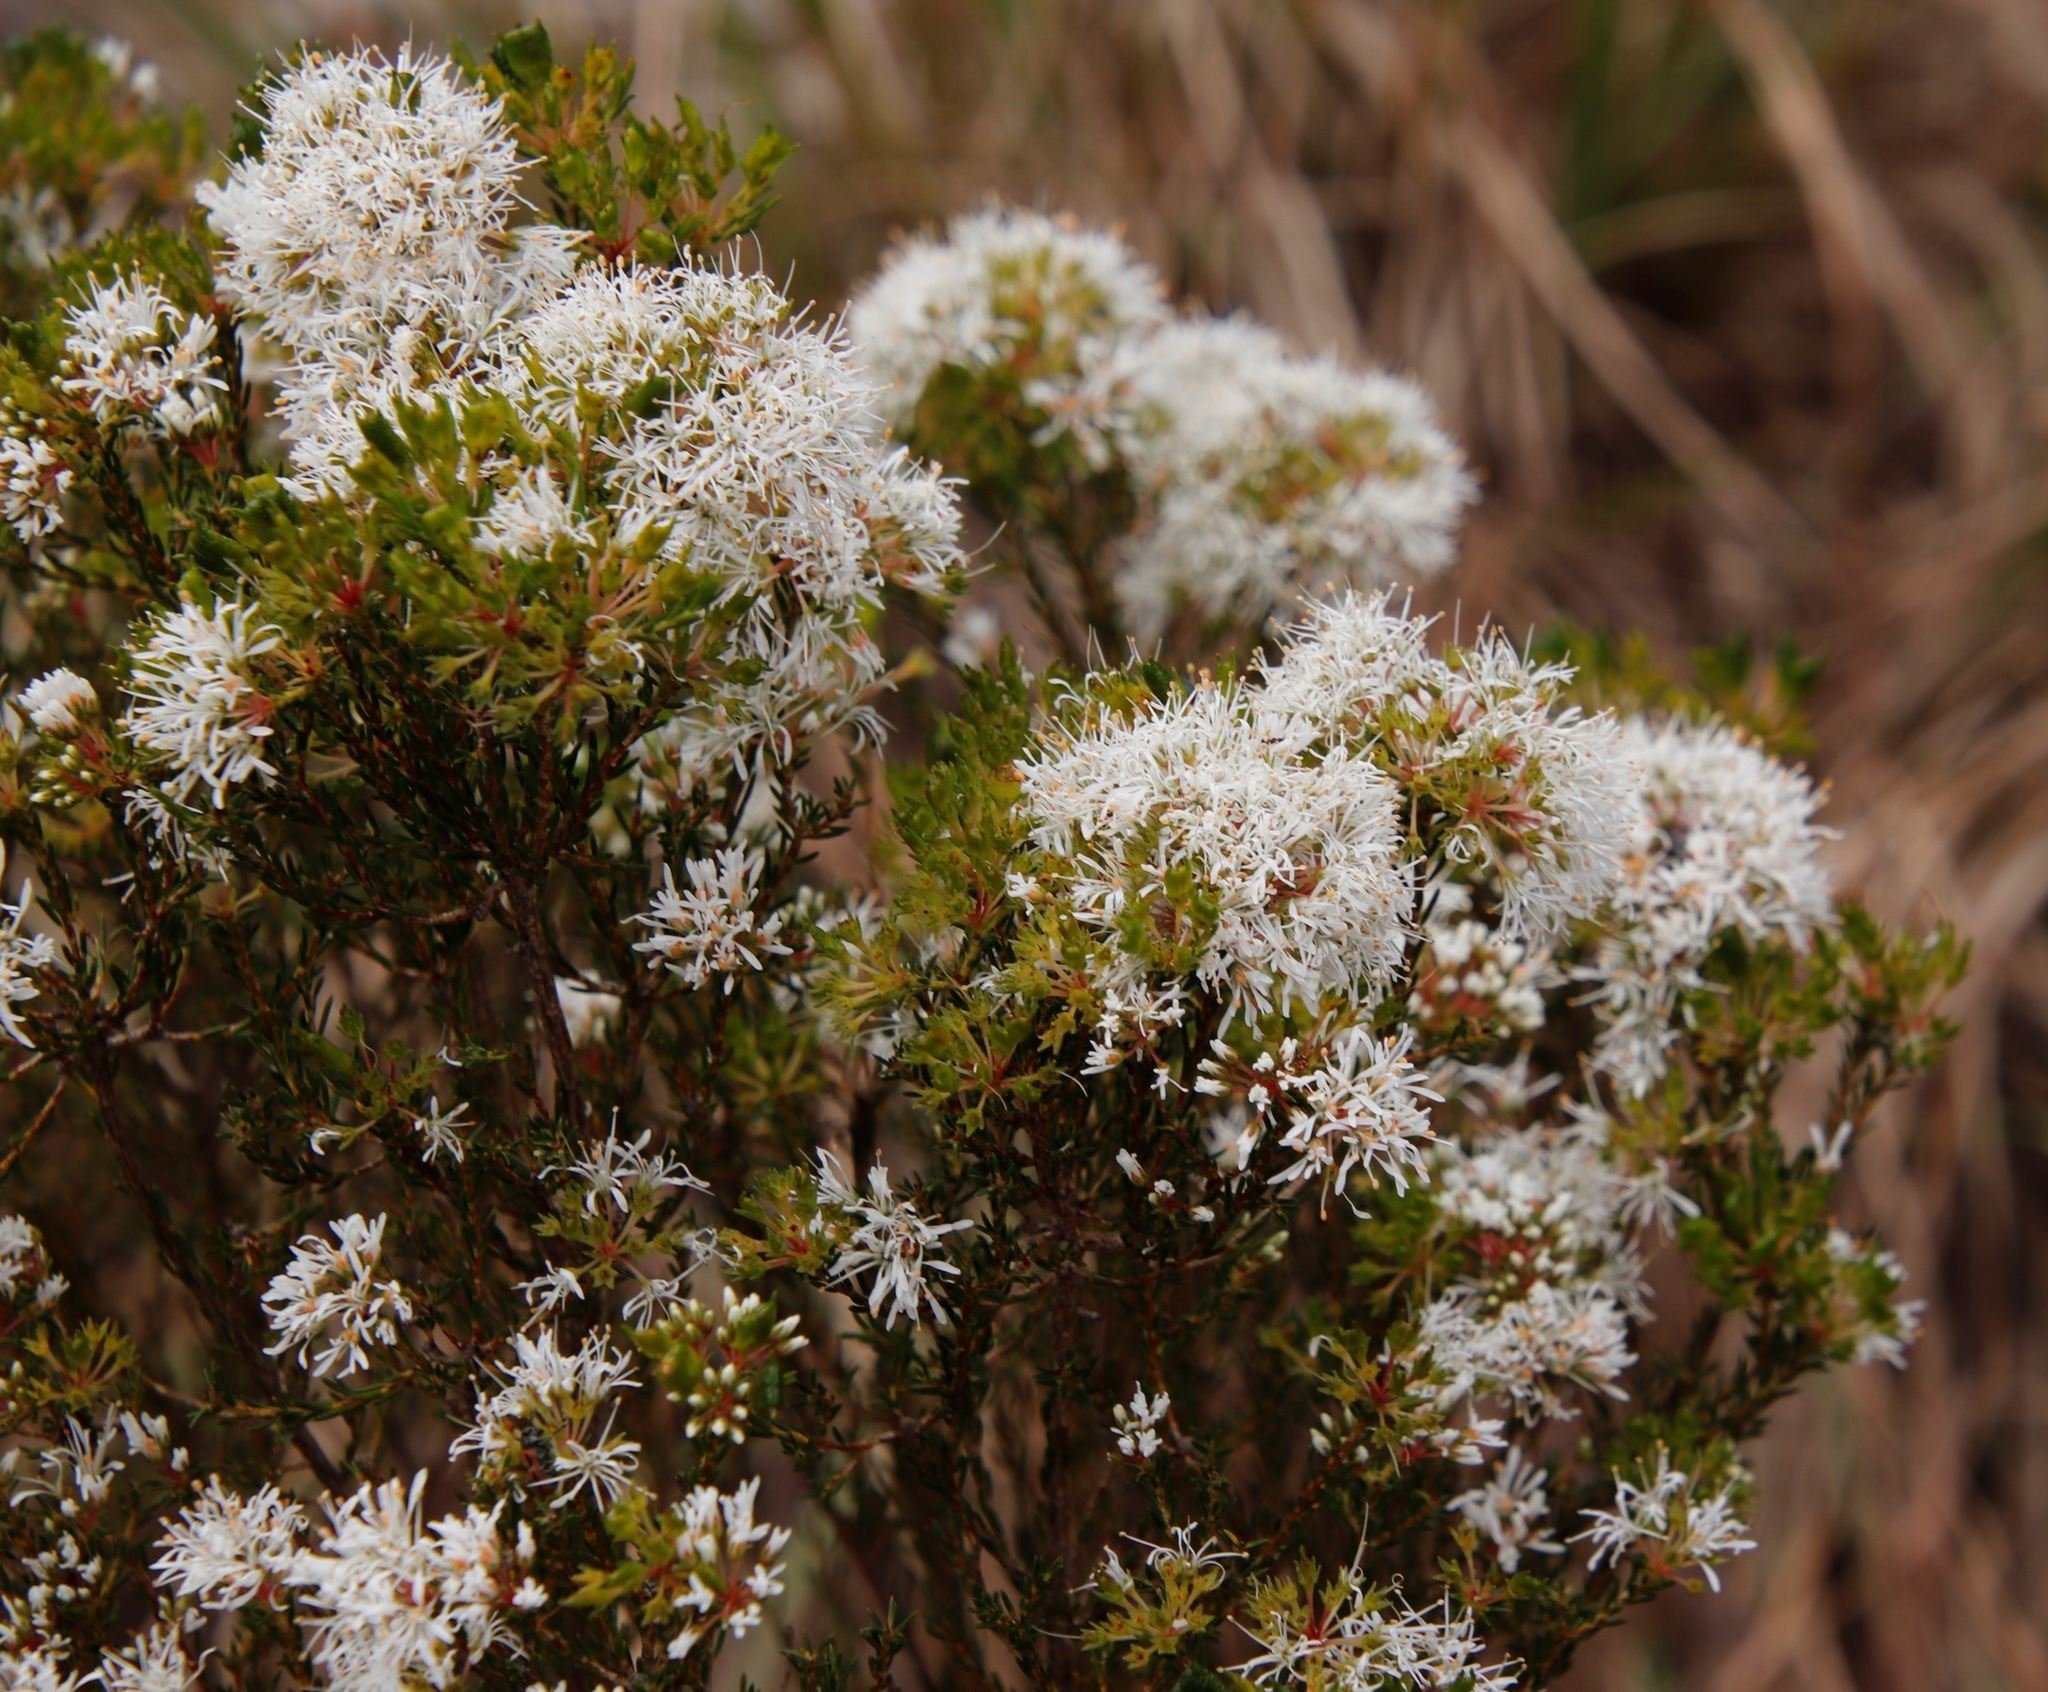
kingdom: Plantae
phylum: Tracheophyta
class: Magnoliopsida
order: Sapindales
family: Rutaceae
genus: Agathosma
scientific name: Agathosma capensis
